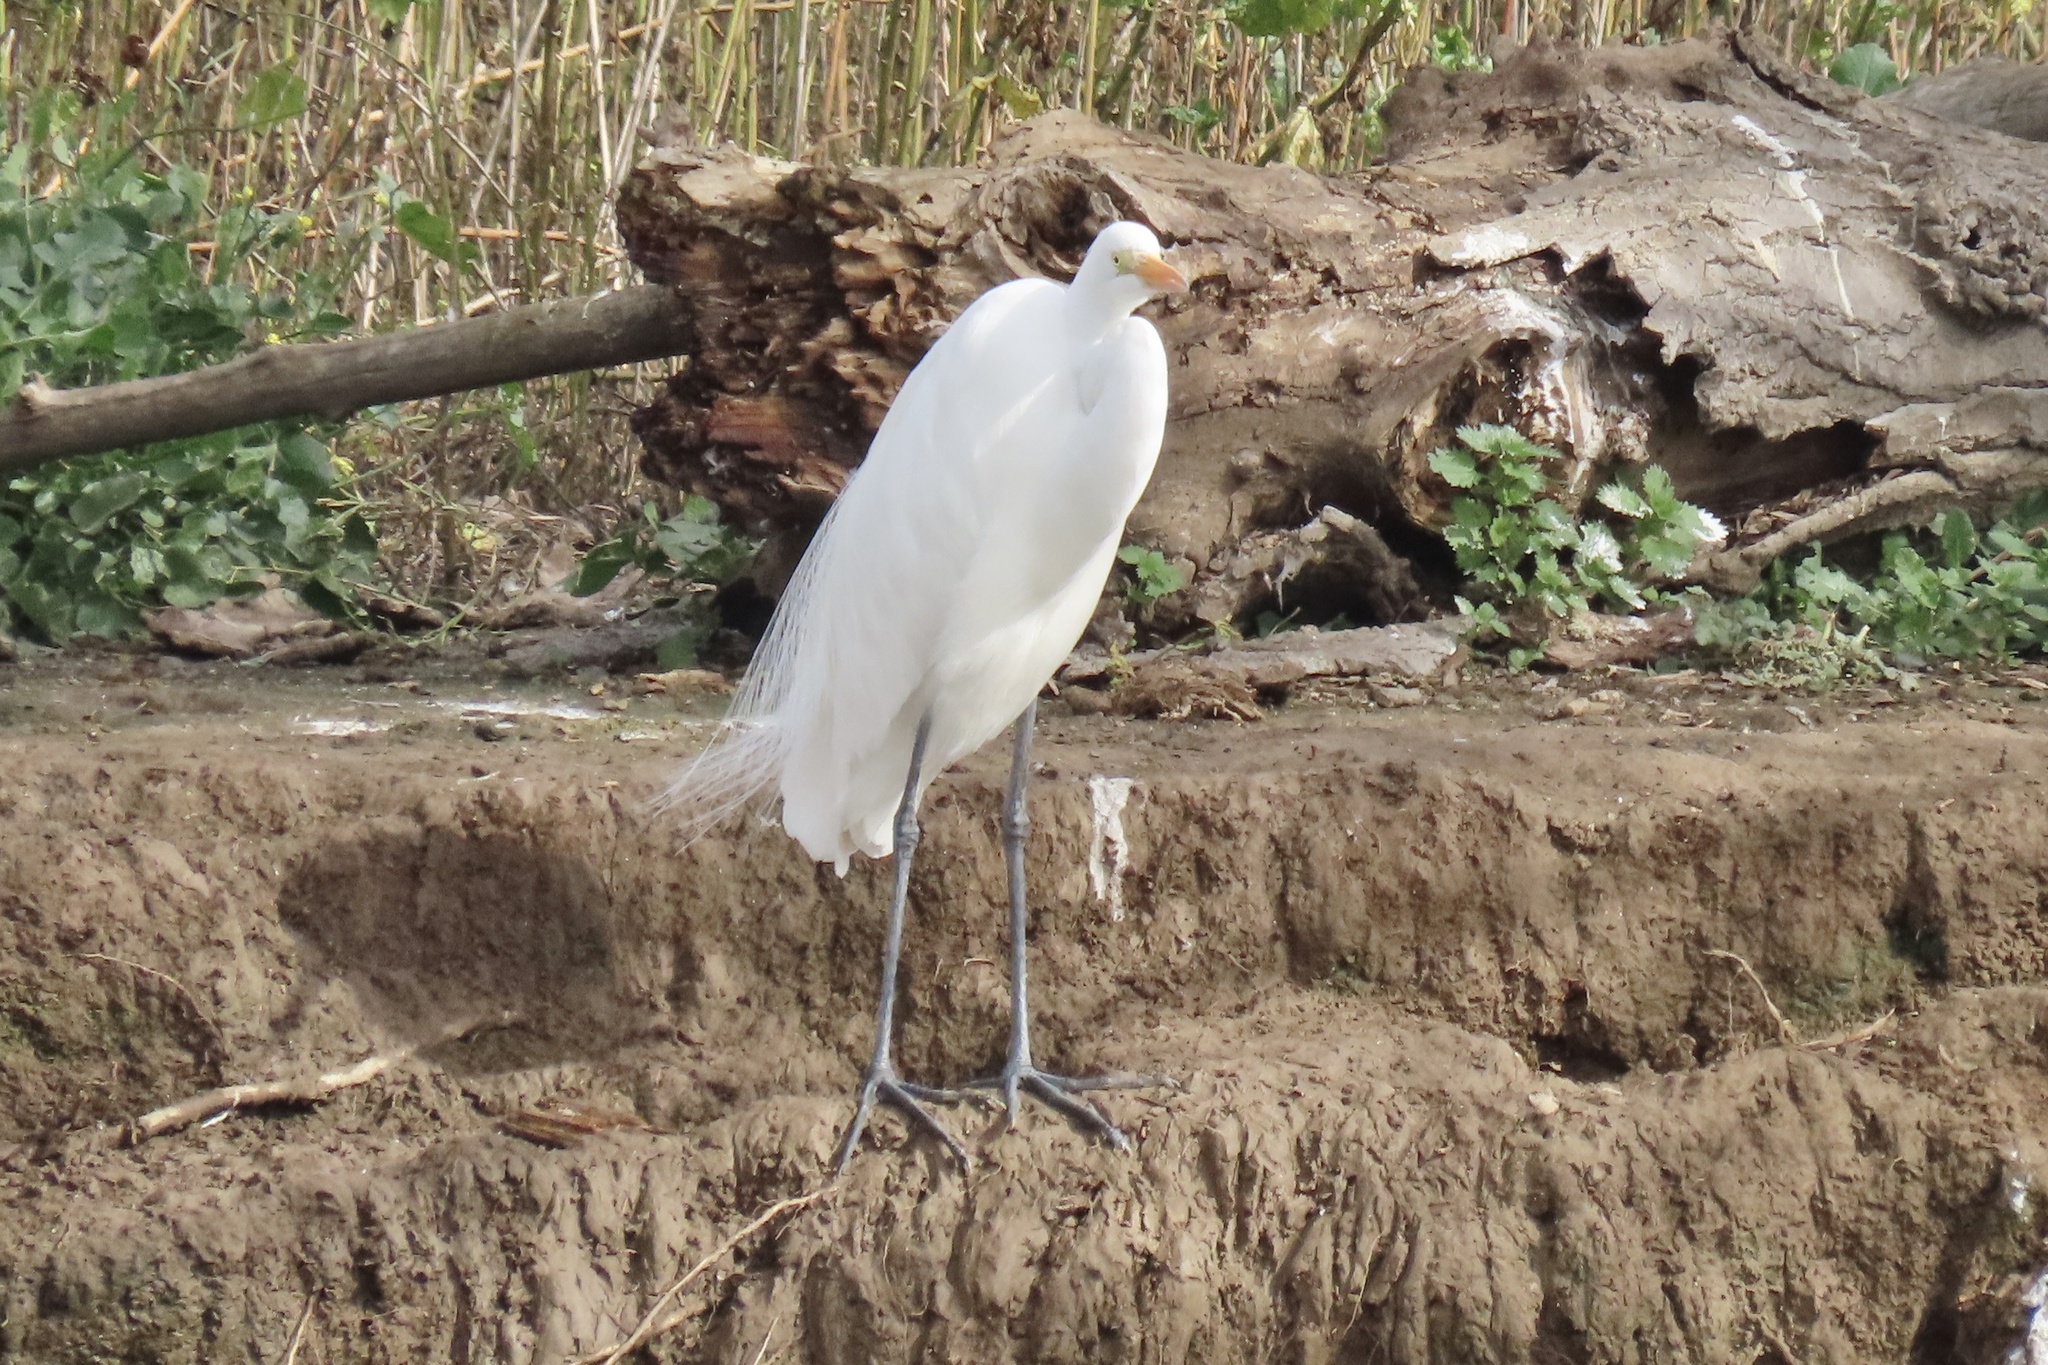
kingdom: Animalia
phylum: Chordata
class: Aves
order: Pelecaniformes
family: Ardeidae
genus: Ardea
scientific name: Ardea alba
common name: Great egret
